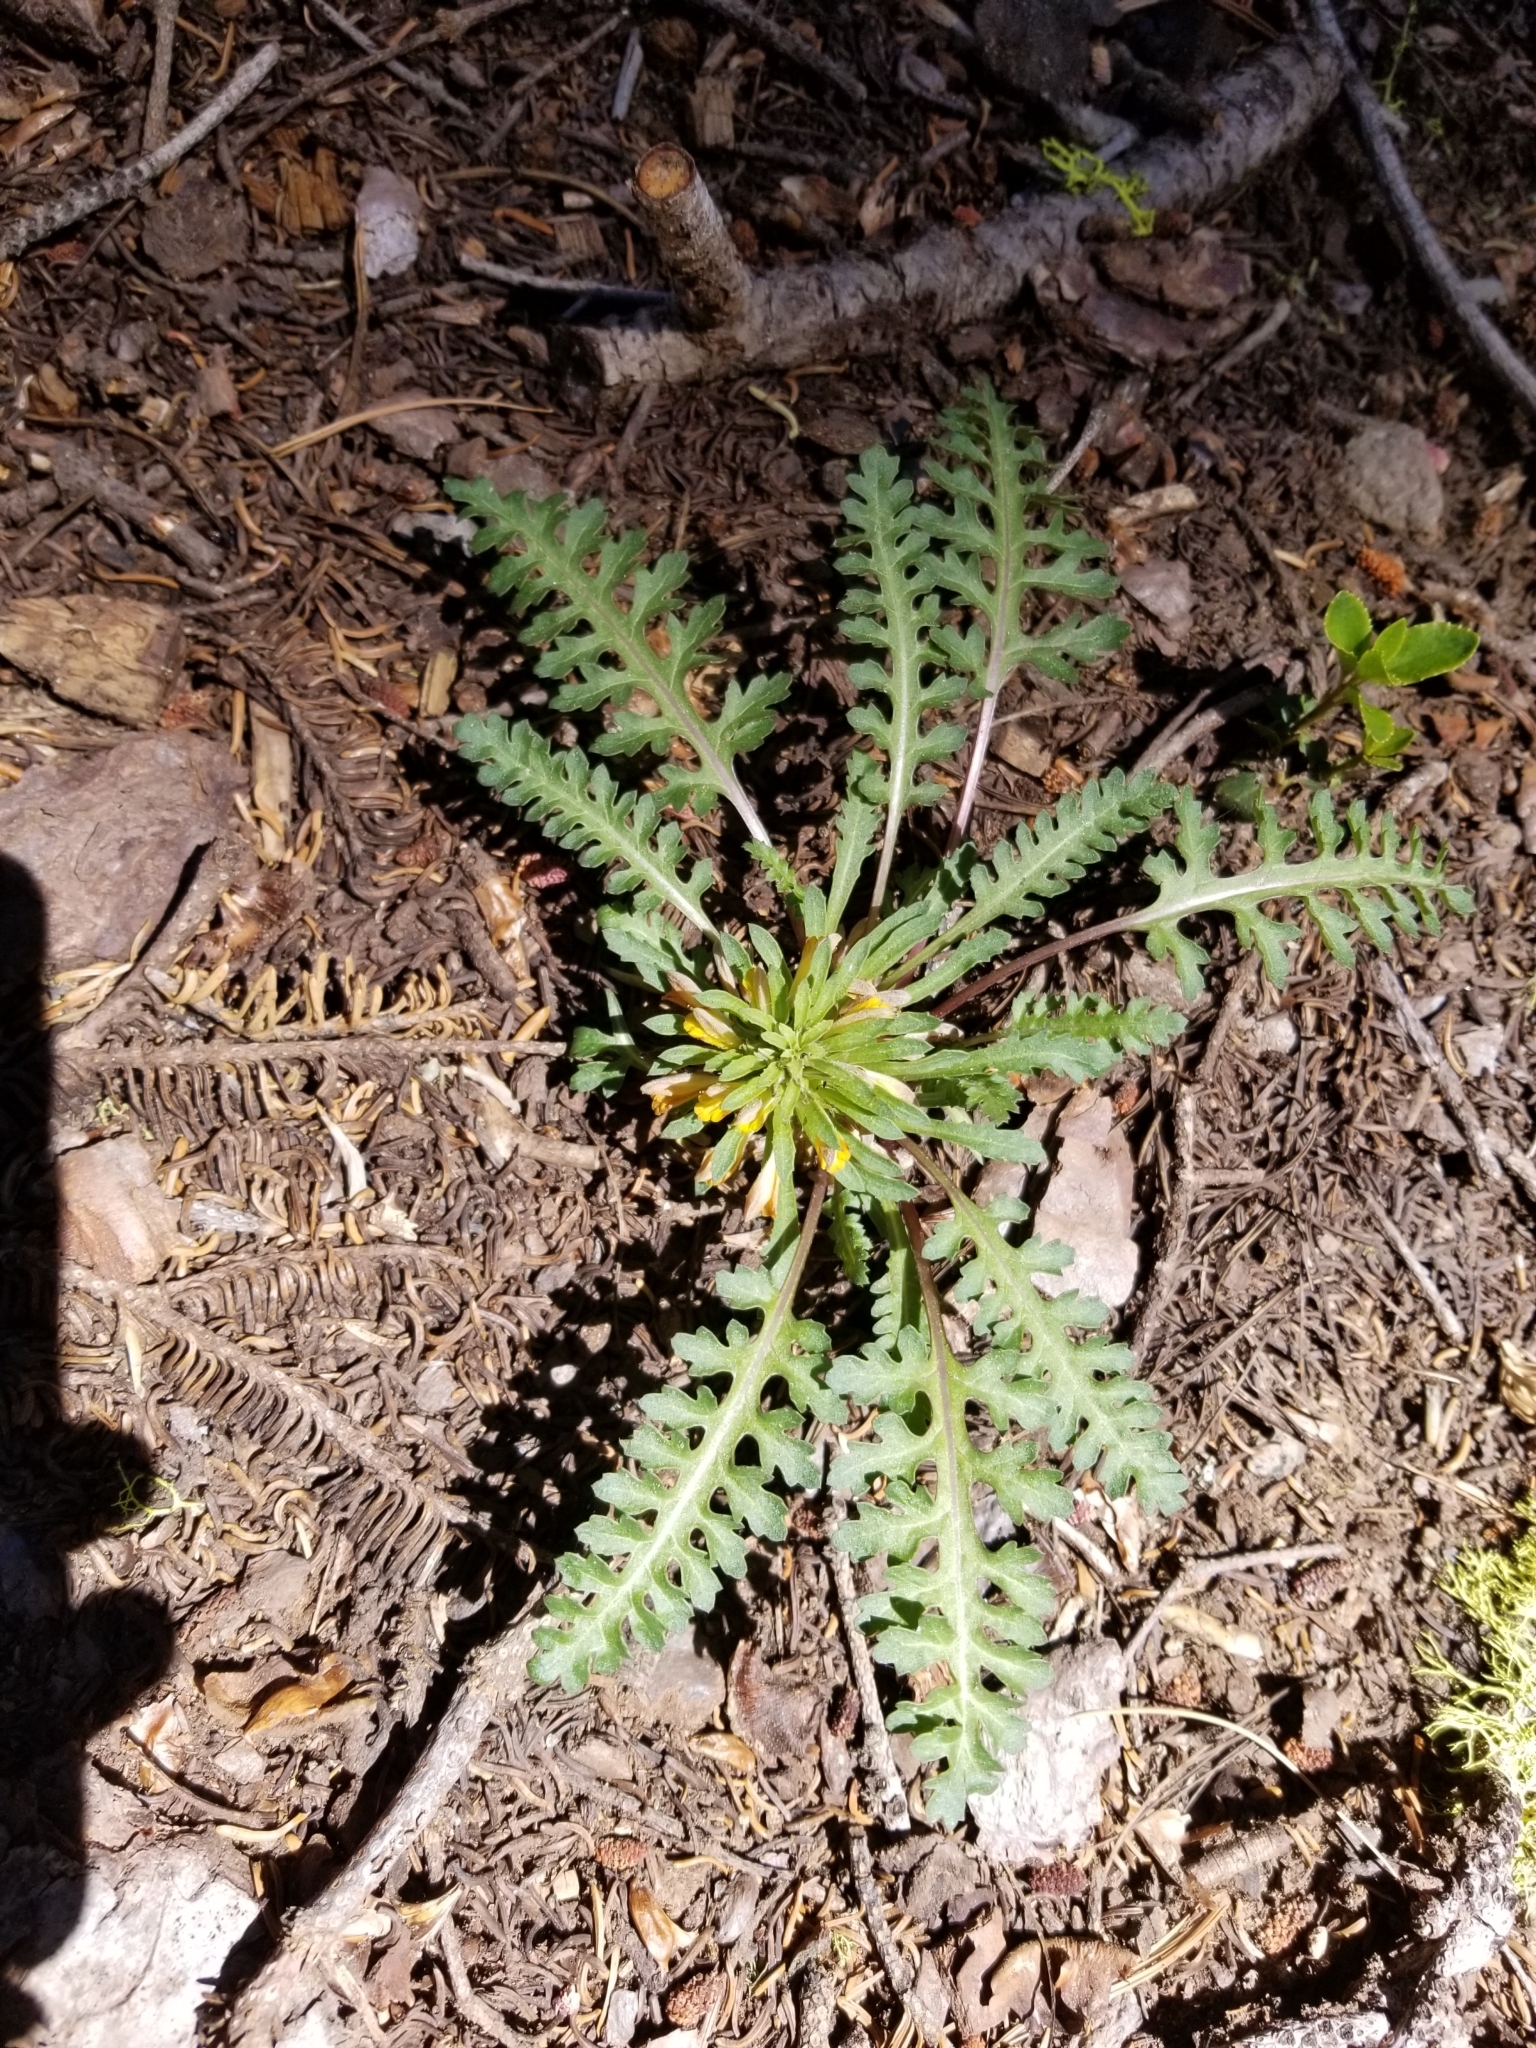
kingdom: Plantae
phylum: Tracheophyta
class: Magnoliopsida
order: Lamiales
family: Orobanchaceae
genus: Pedicularis
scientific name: Pedicularis semibarbata
